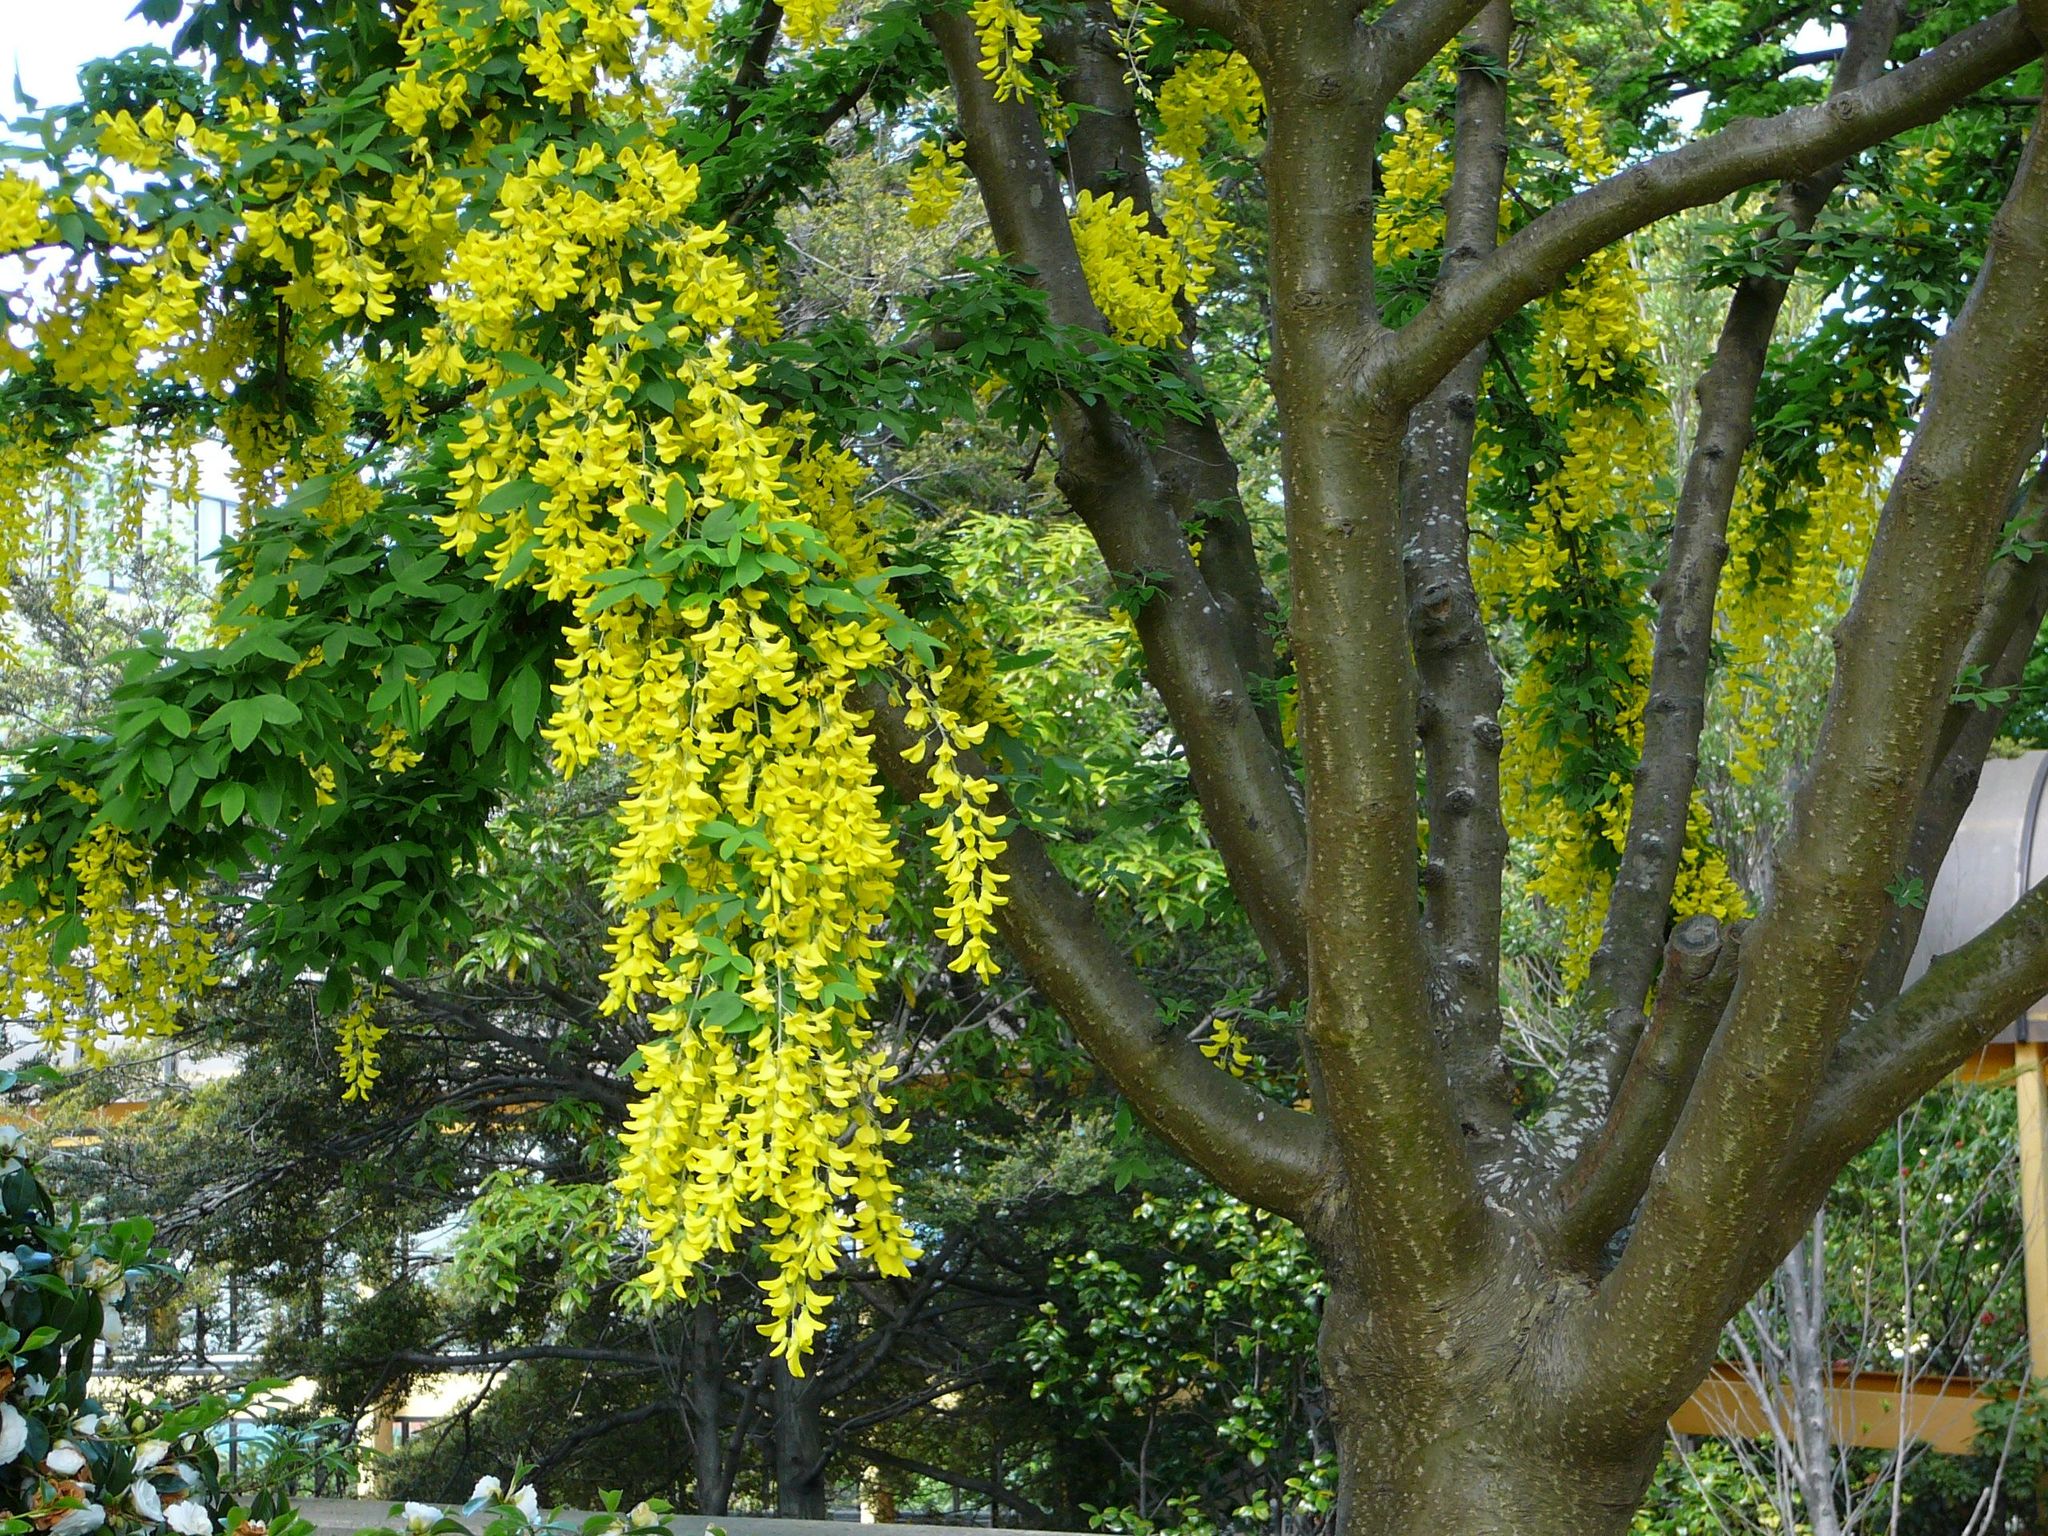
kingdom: Plantae
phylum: Tracheophyta
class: Magnoliopsida
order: Fabales
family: Fabaceae
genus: Laburnum
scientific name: Laburnum anagyroides
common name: Laburnum
